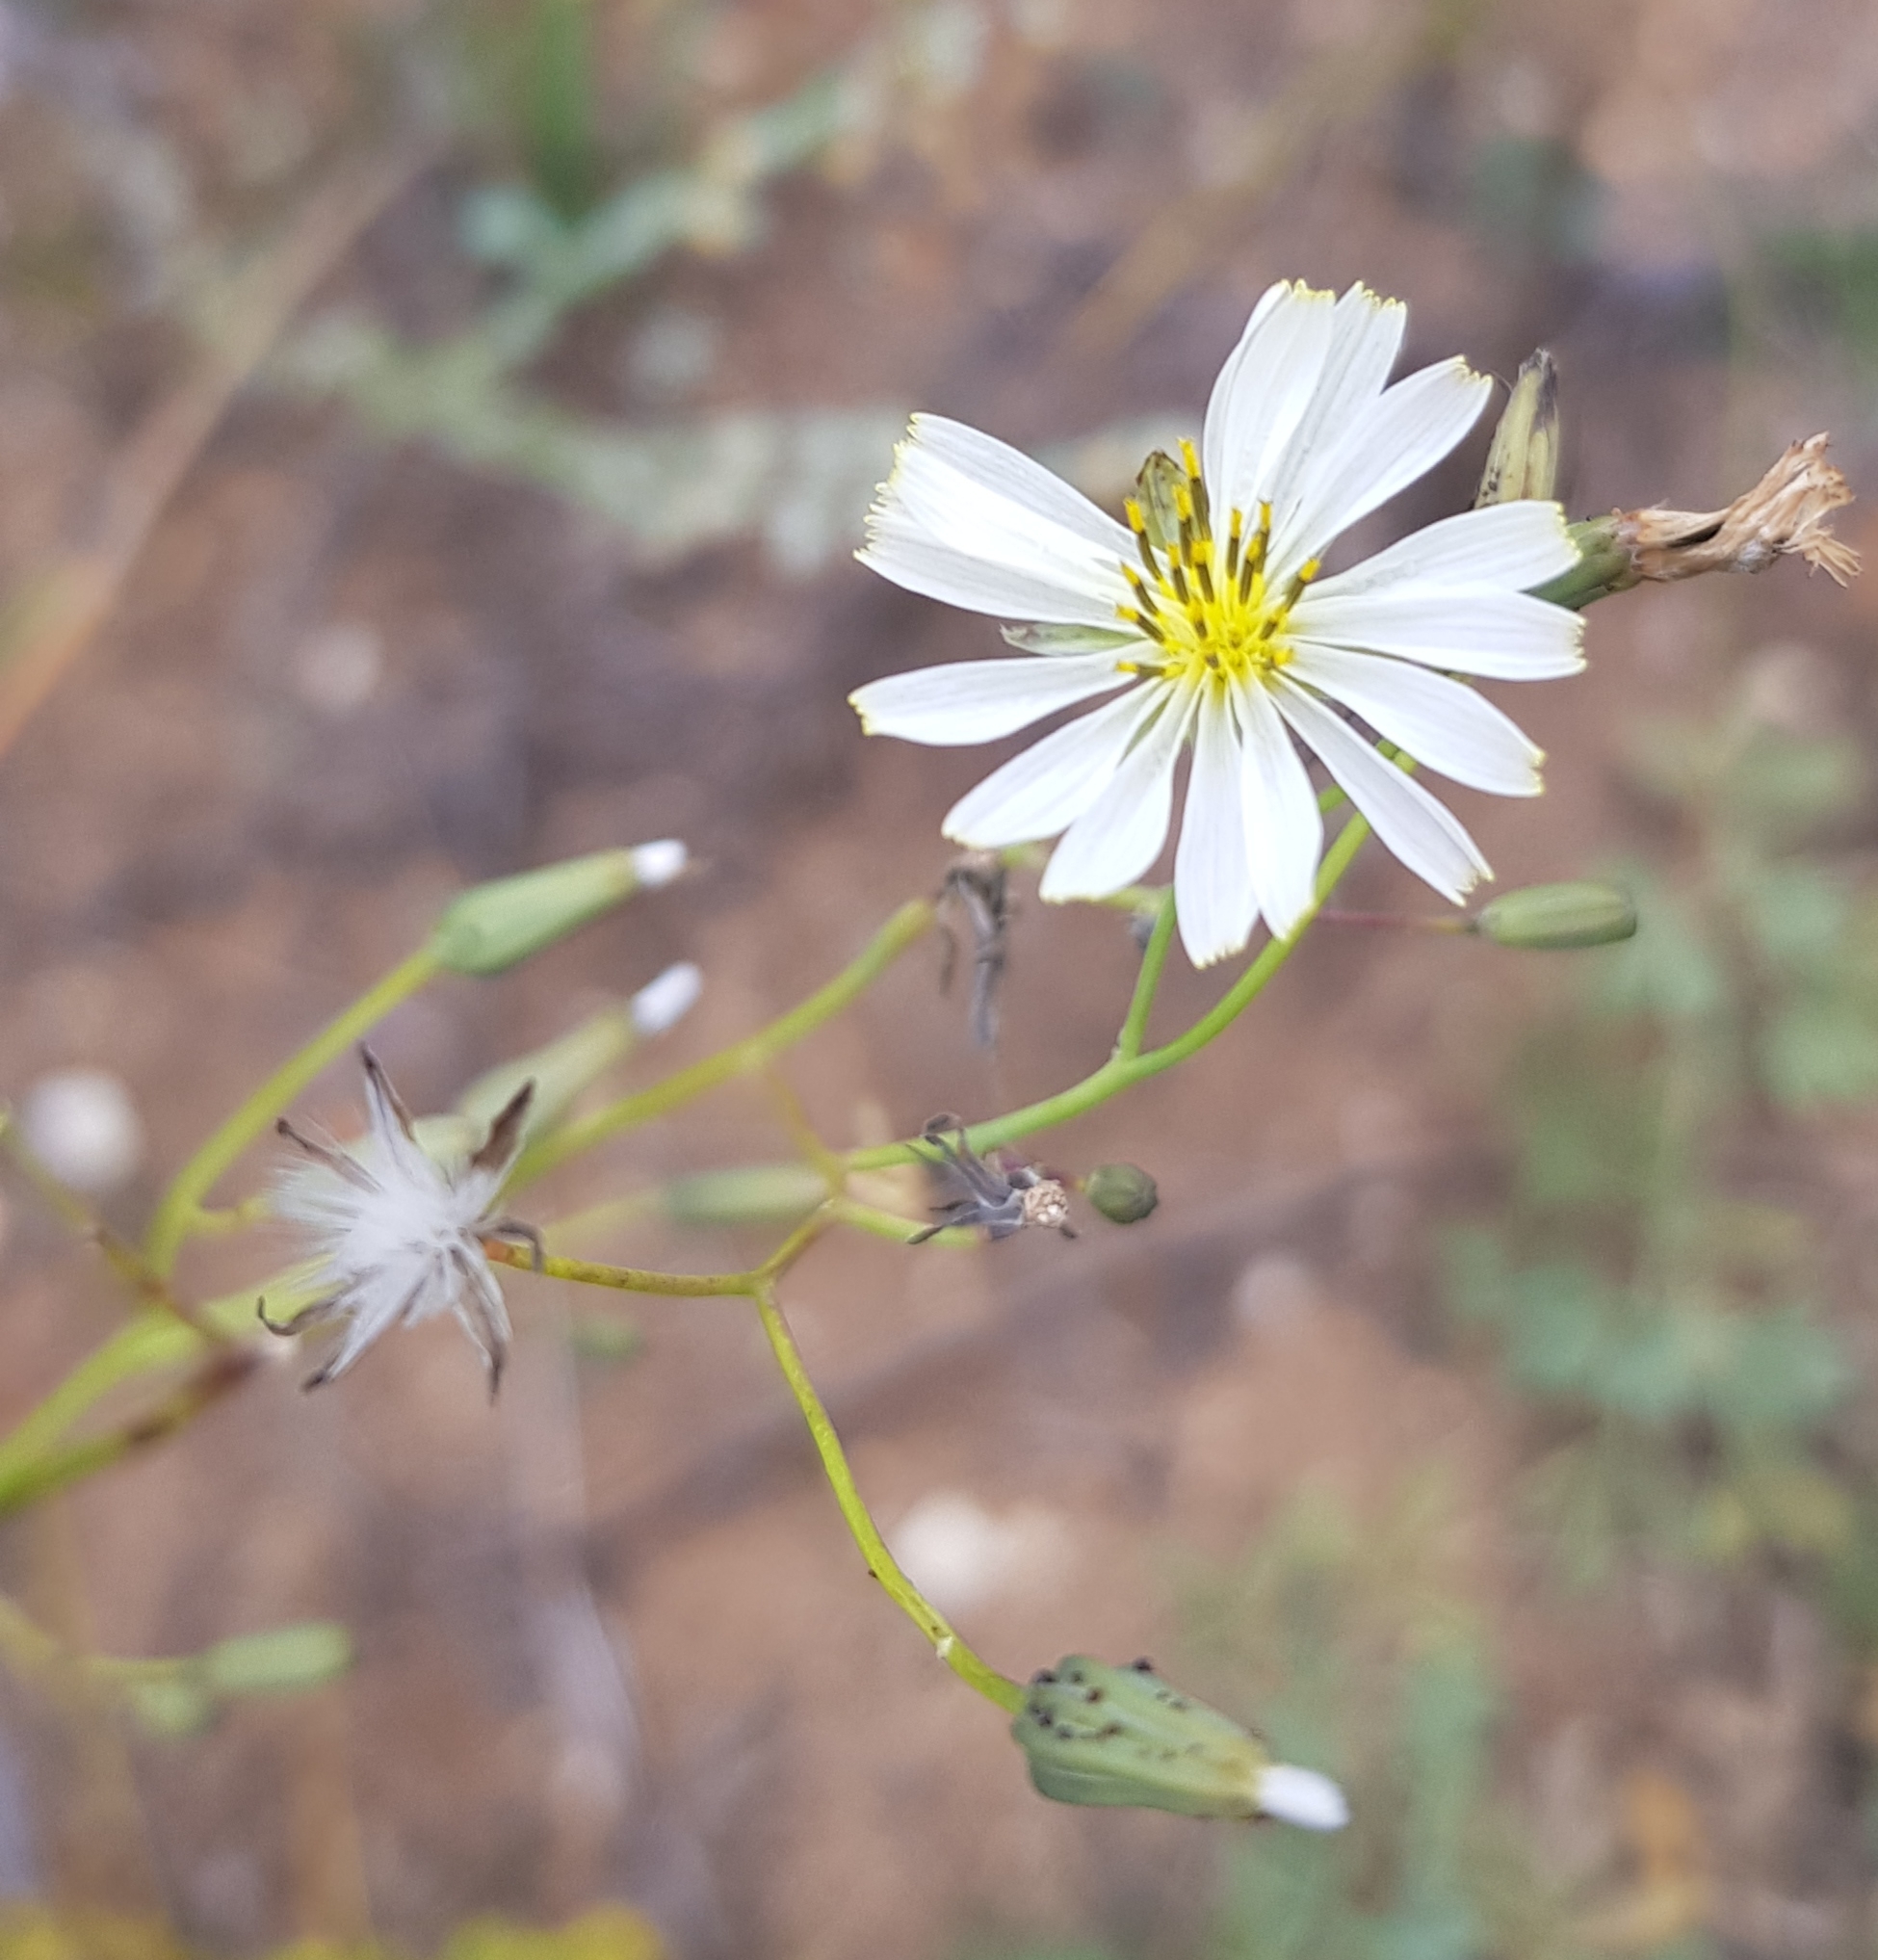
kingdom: Plantae
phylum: Tracheophyta
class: Magnoliopsida
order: Asterales
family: Asteraceae
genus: Ixeris
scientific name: Ixeris chinensis
